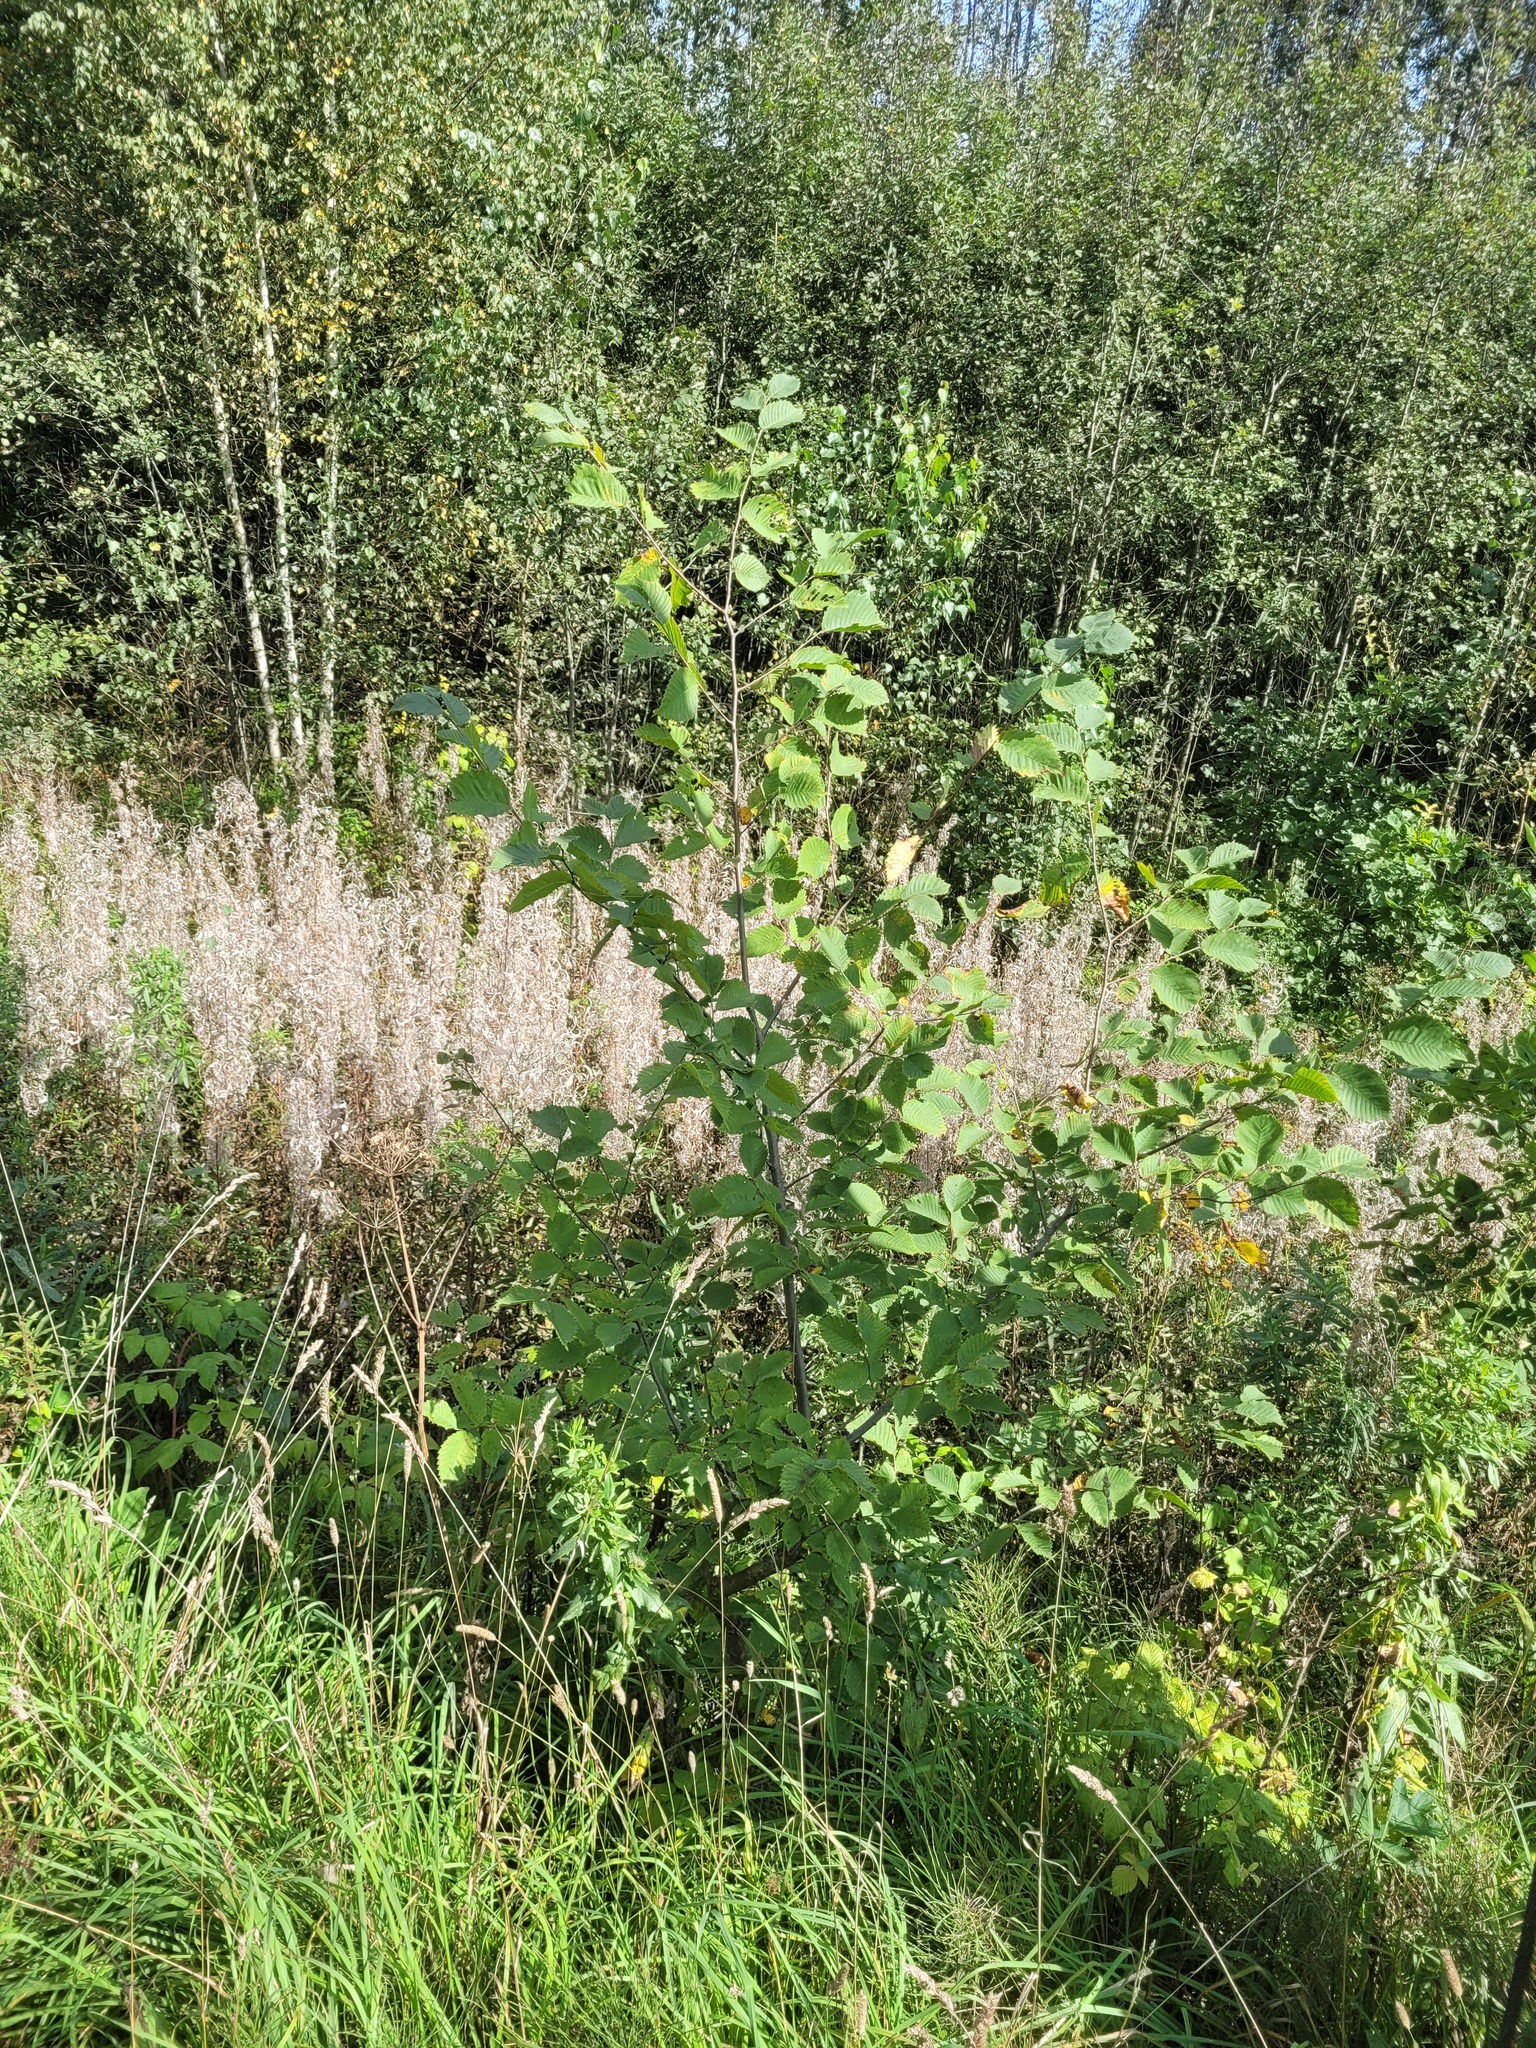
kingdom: Plantae
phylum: Tracheophyta
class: Magnoliopsida
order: Rosales
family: Ulmaceae
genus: Ulmus
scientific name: Ulmus laevis
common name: European white-elm
